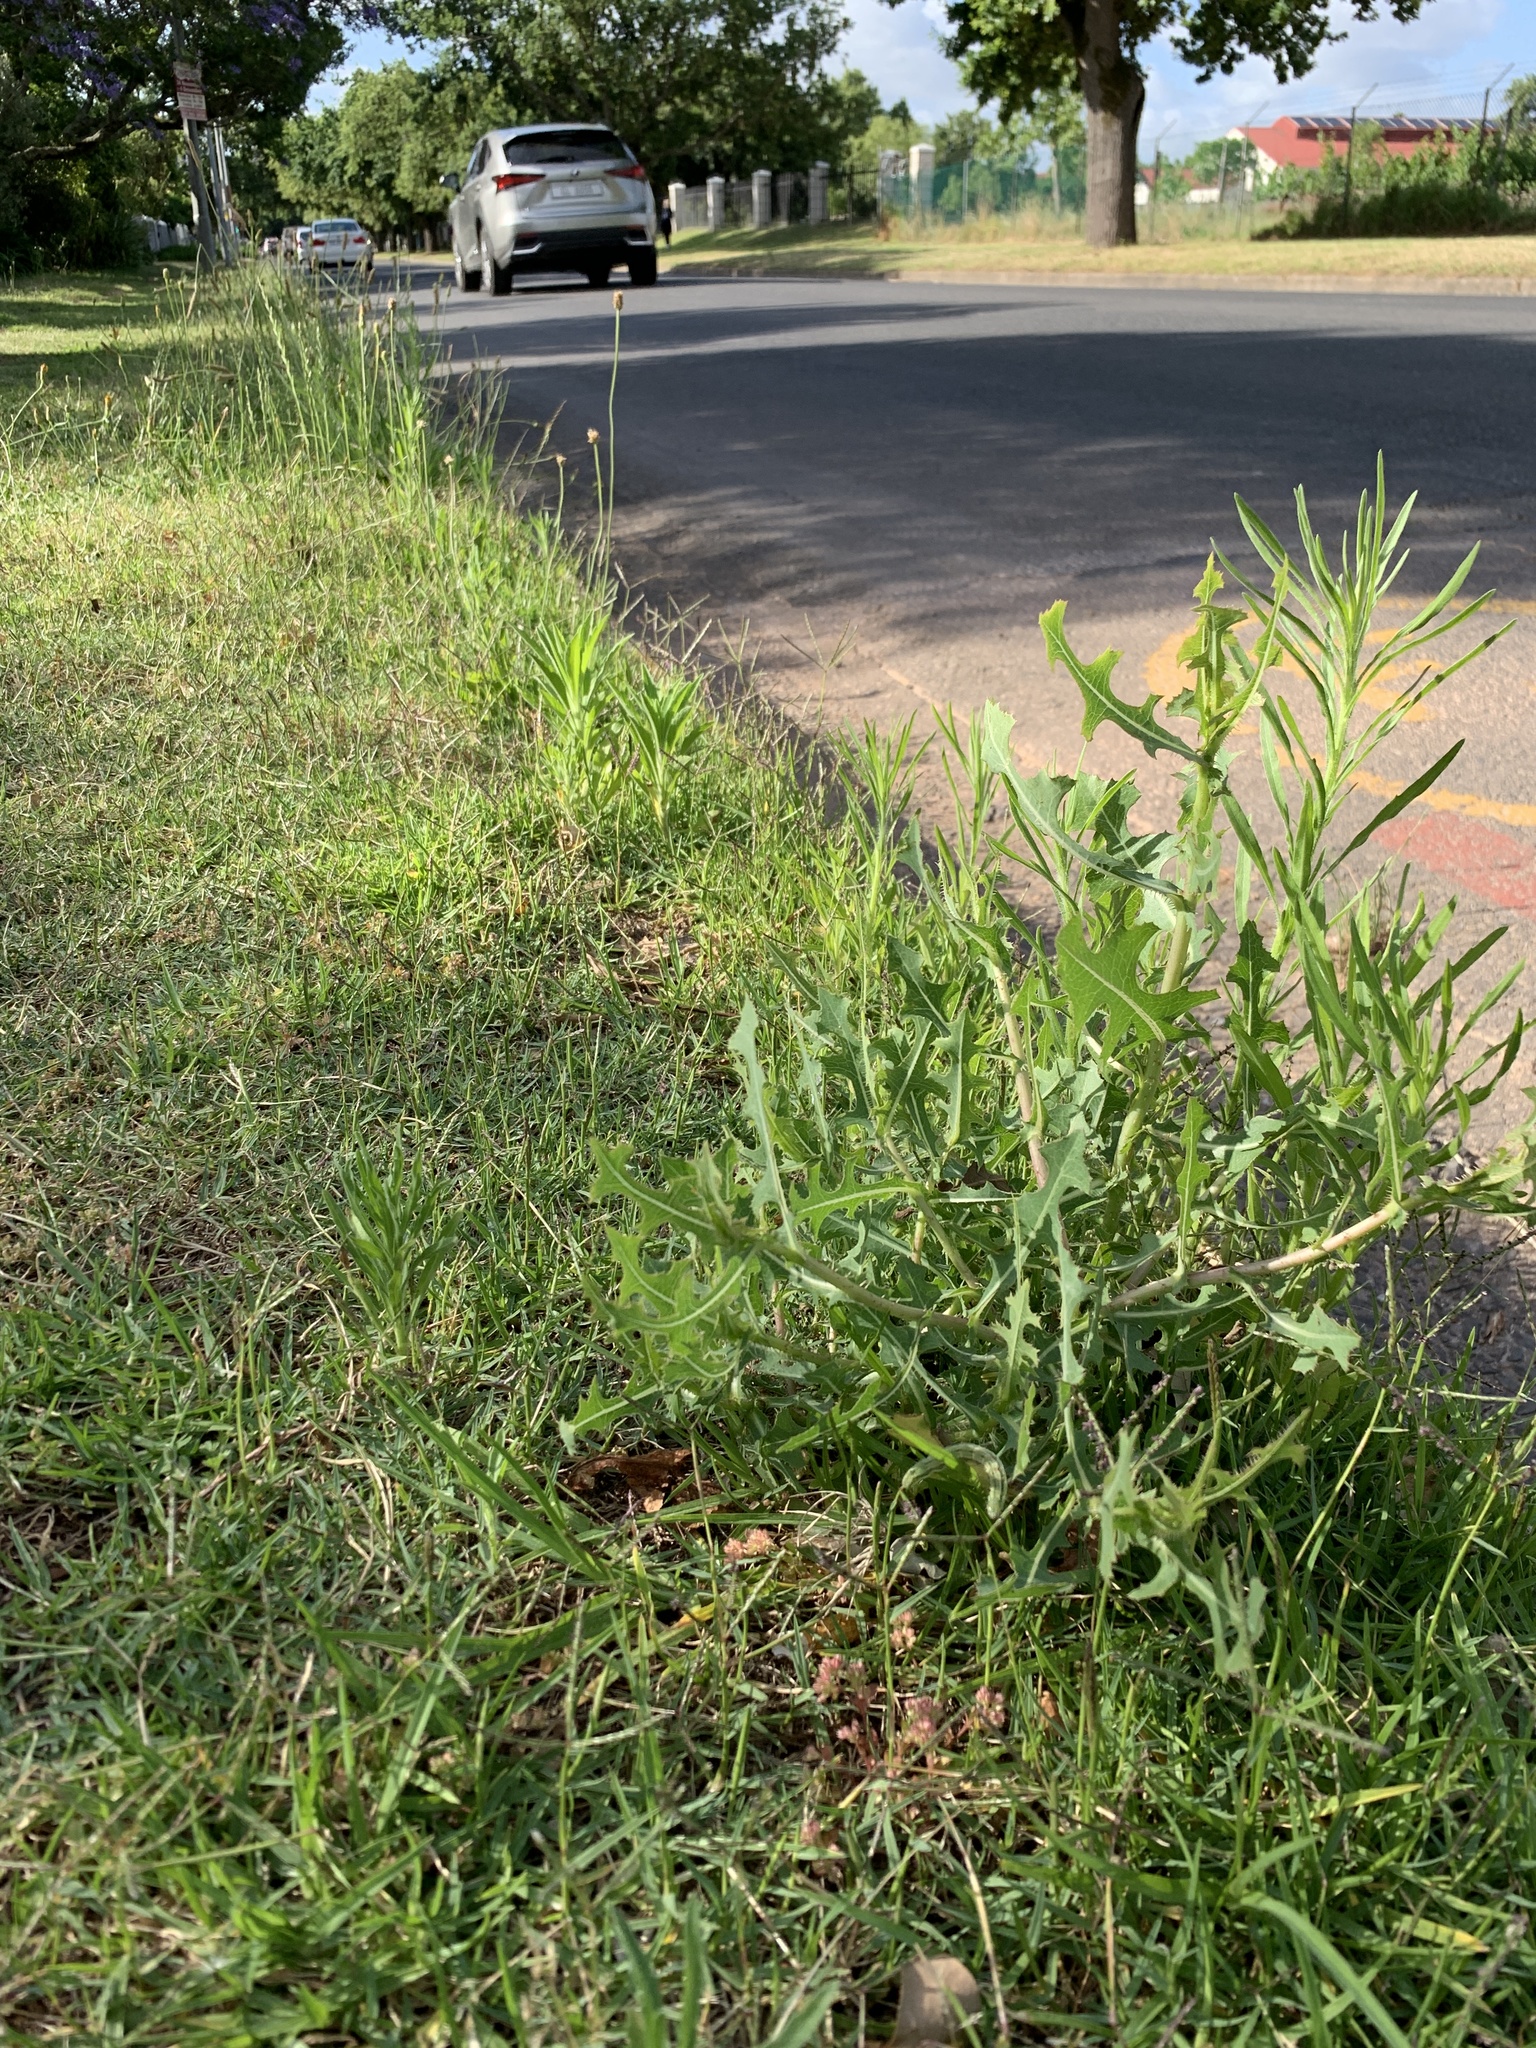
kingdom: Plantae
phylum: Tracheophyta
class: Magnoliopsida
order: Asterales
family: Asteraceae
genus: Lactuca
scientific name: Lactuca serriola
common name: Prickly lettuce
